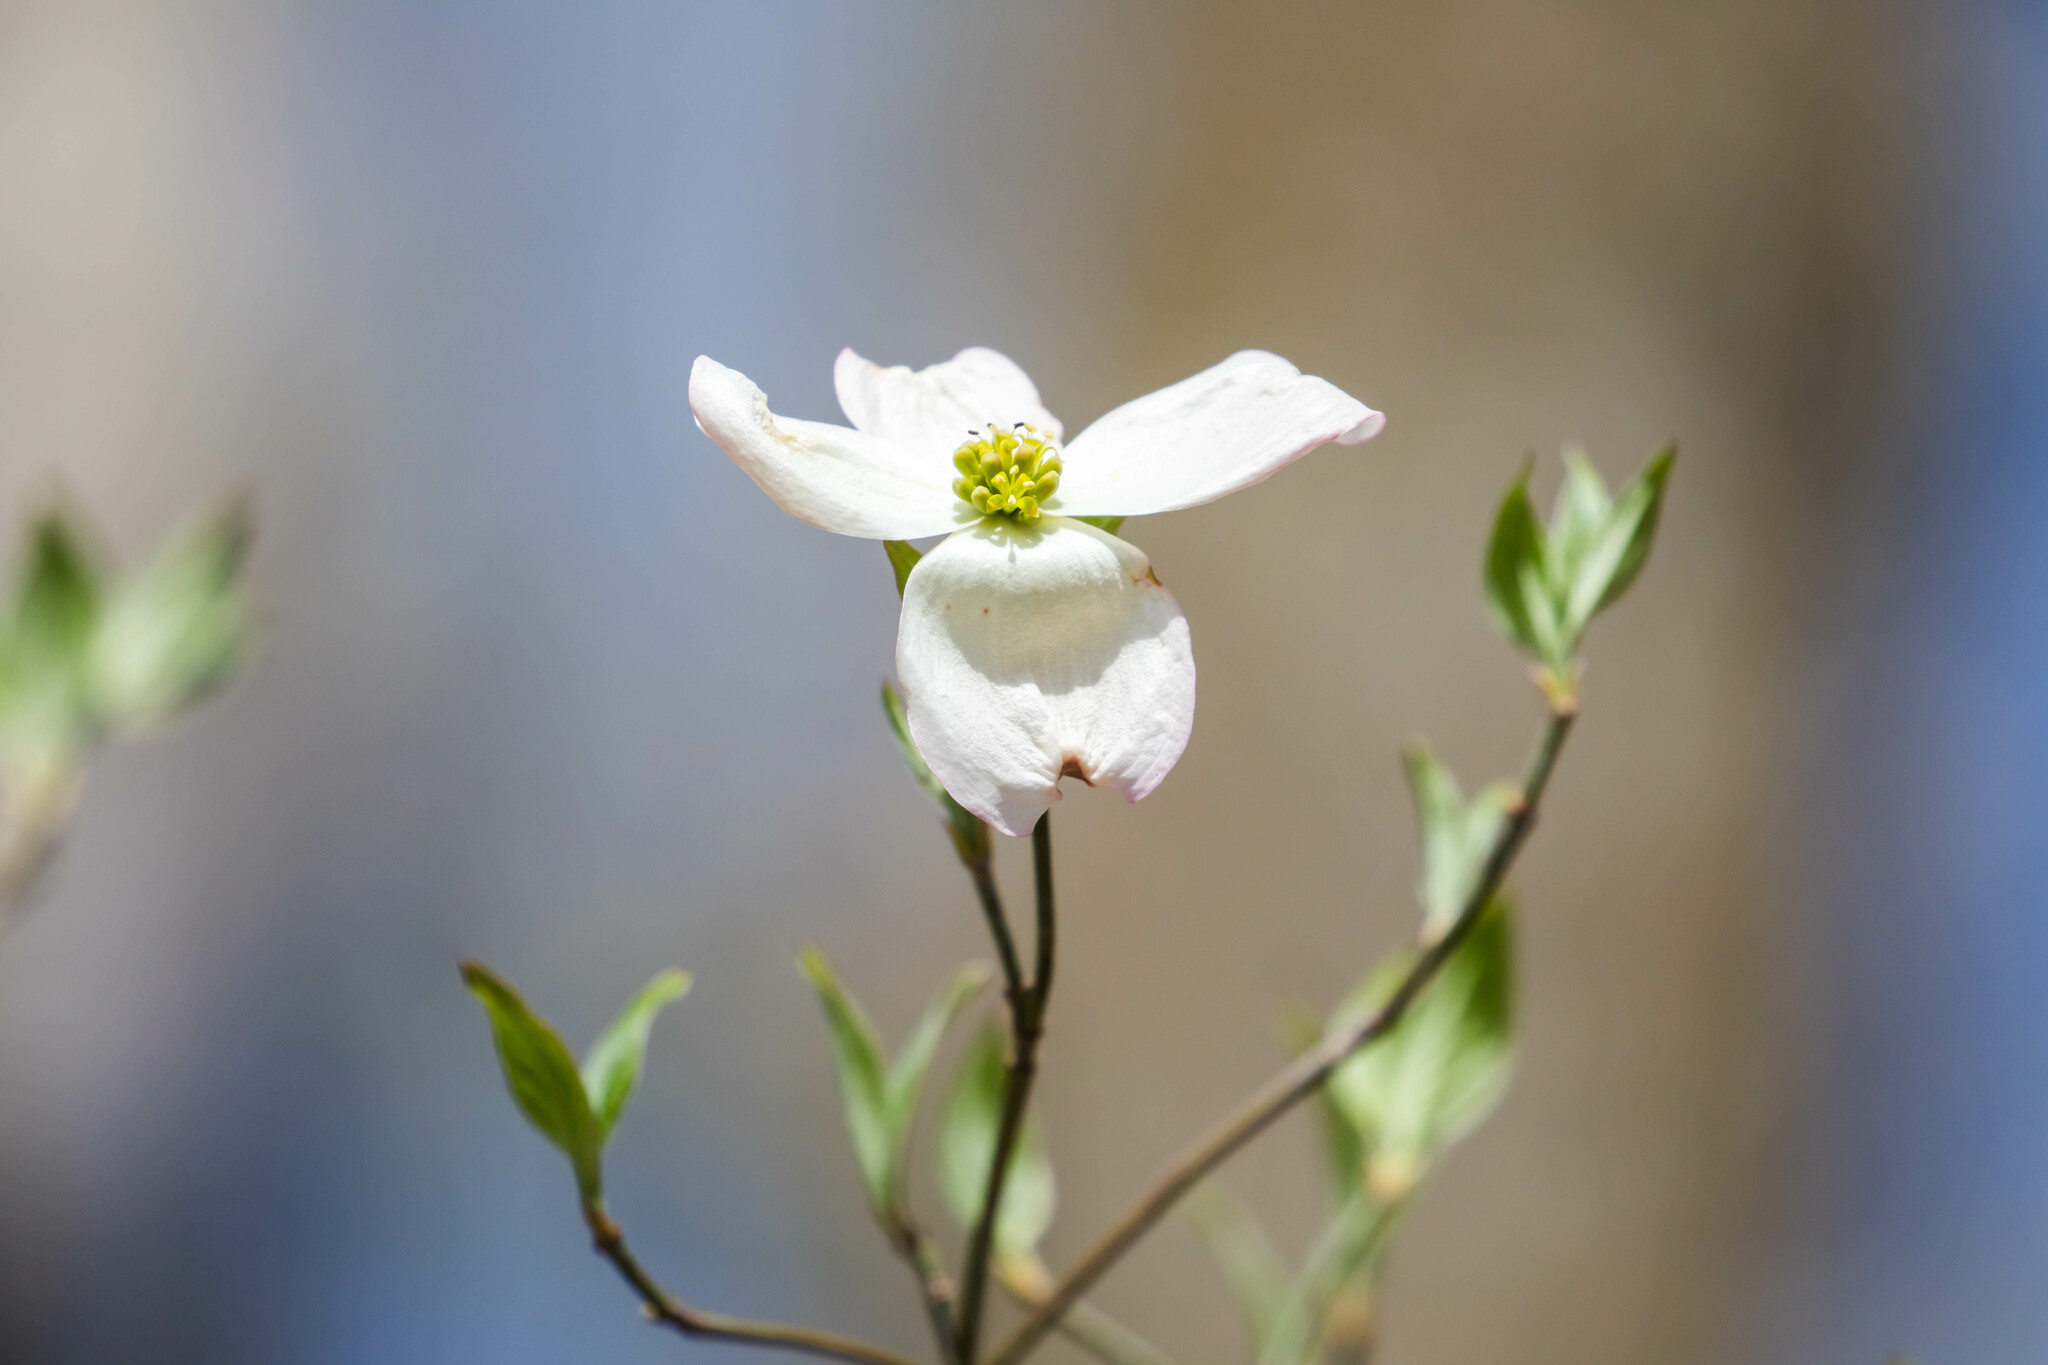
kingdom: Plantae
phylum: Tracheophyta
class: Magnoliopsida
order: Cornales
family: Cornaceae
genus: Cornus
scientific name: Cornus florida
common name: Flowering dogwood
